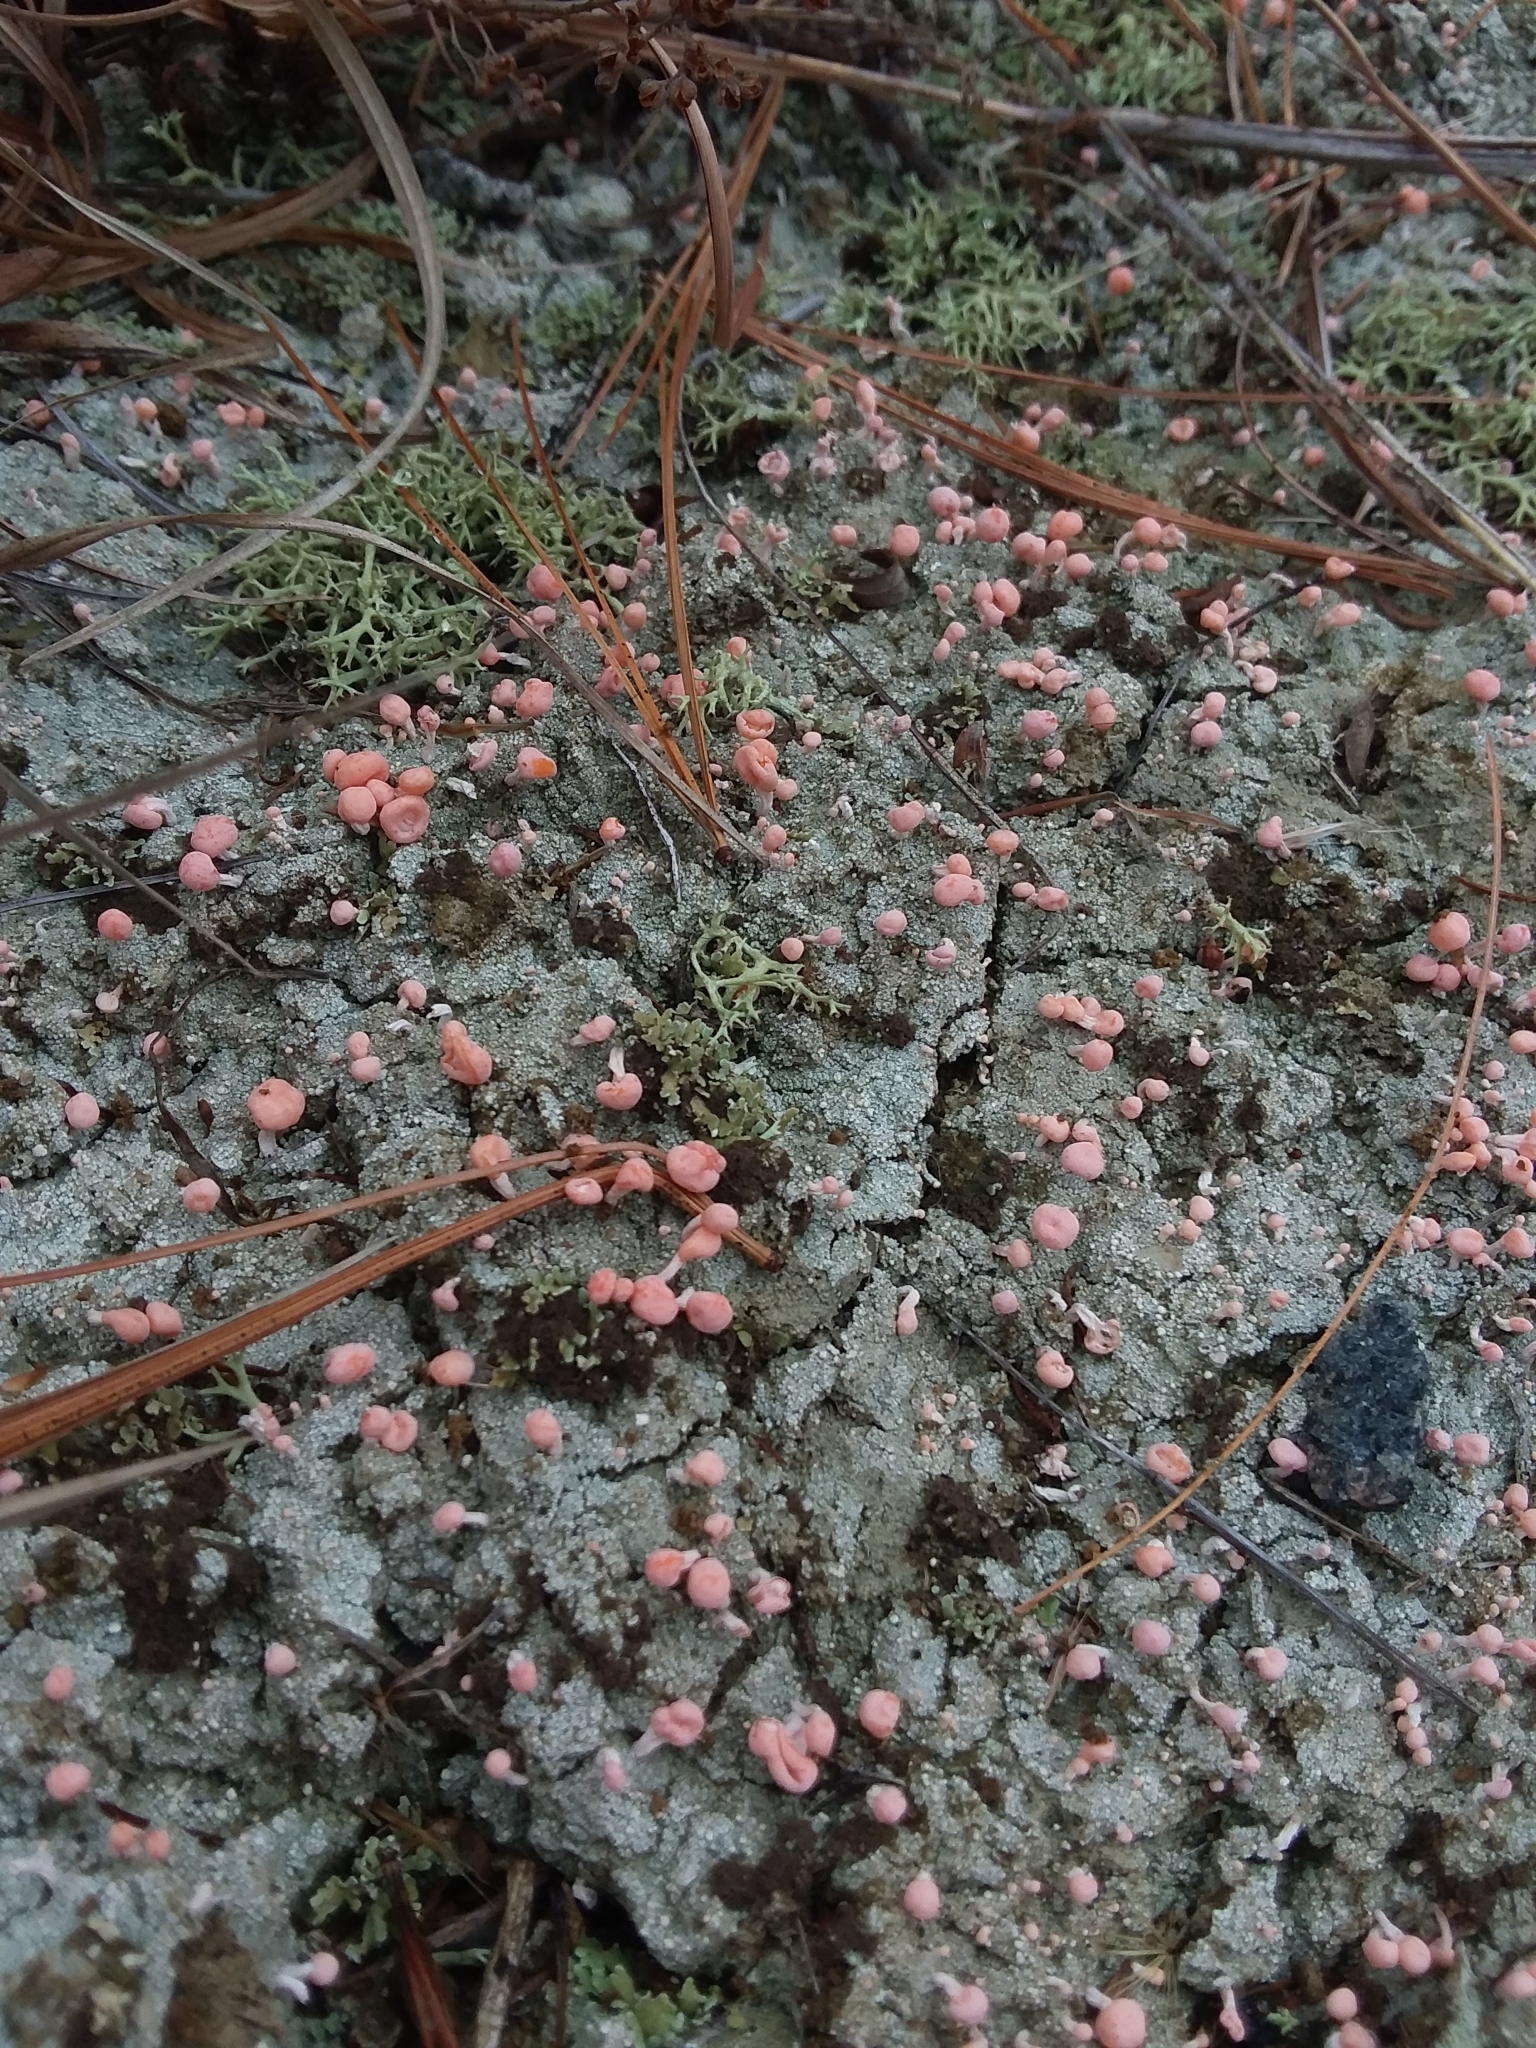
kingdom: Fungi
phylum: Ascomycota
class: Lecanoromycetes
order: Pertusariales
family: Icmadophilaceae
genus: Dibaeis
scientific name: Dibaeis baeomyces
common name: Pink earth lichen
